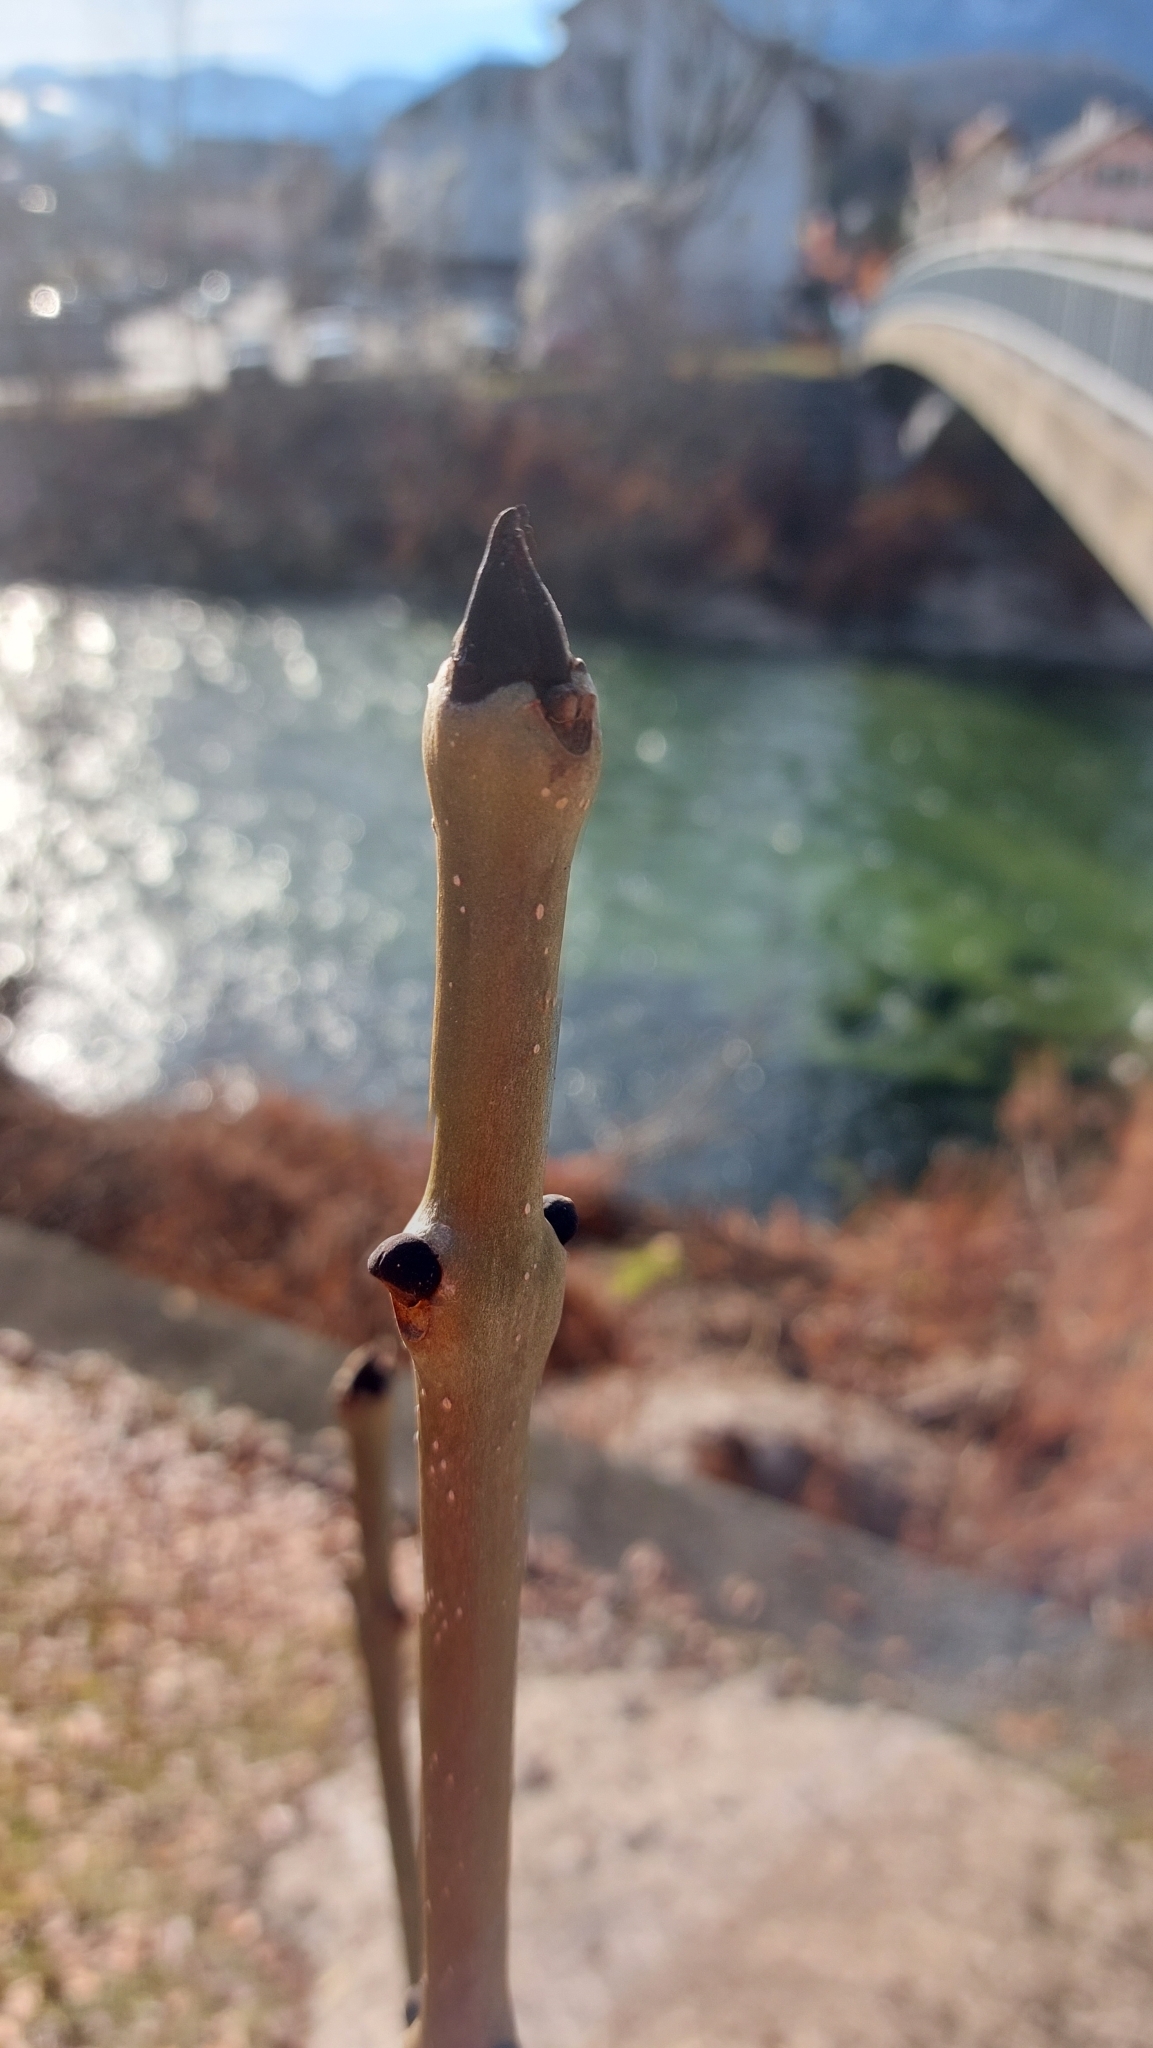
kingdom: Plantae
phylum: Tracheophyta
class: Magnoliopsida
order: Lamiales
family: Oleaceae
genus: Fraxinus
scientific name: Fraxinus excelsior
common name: European ash
